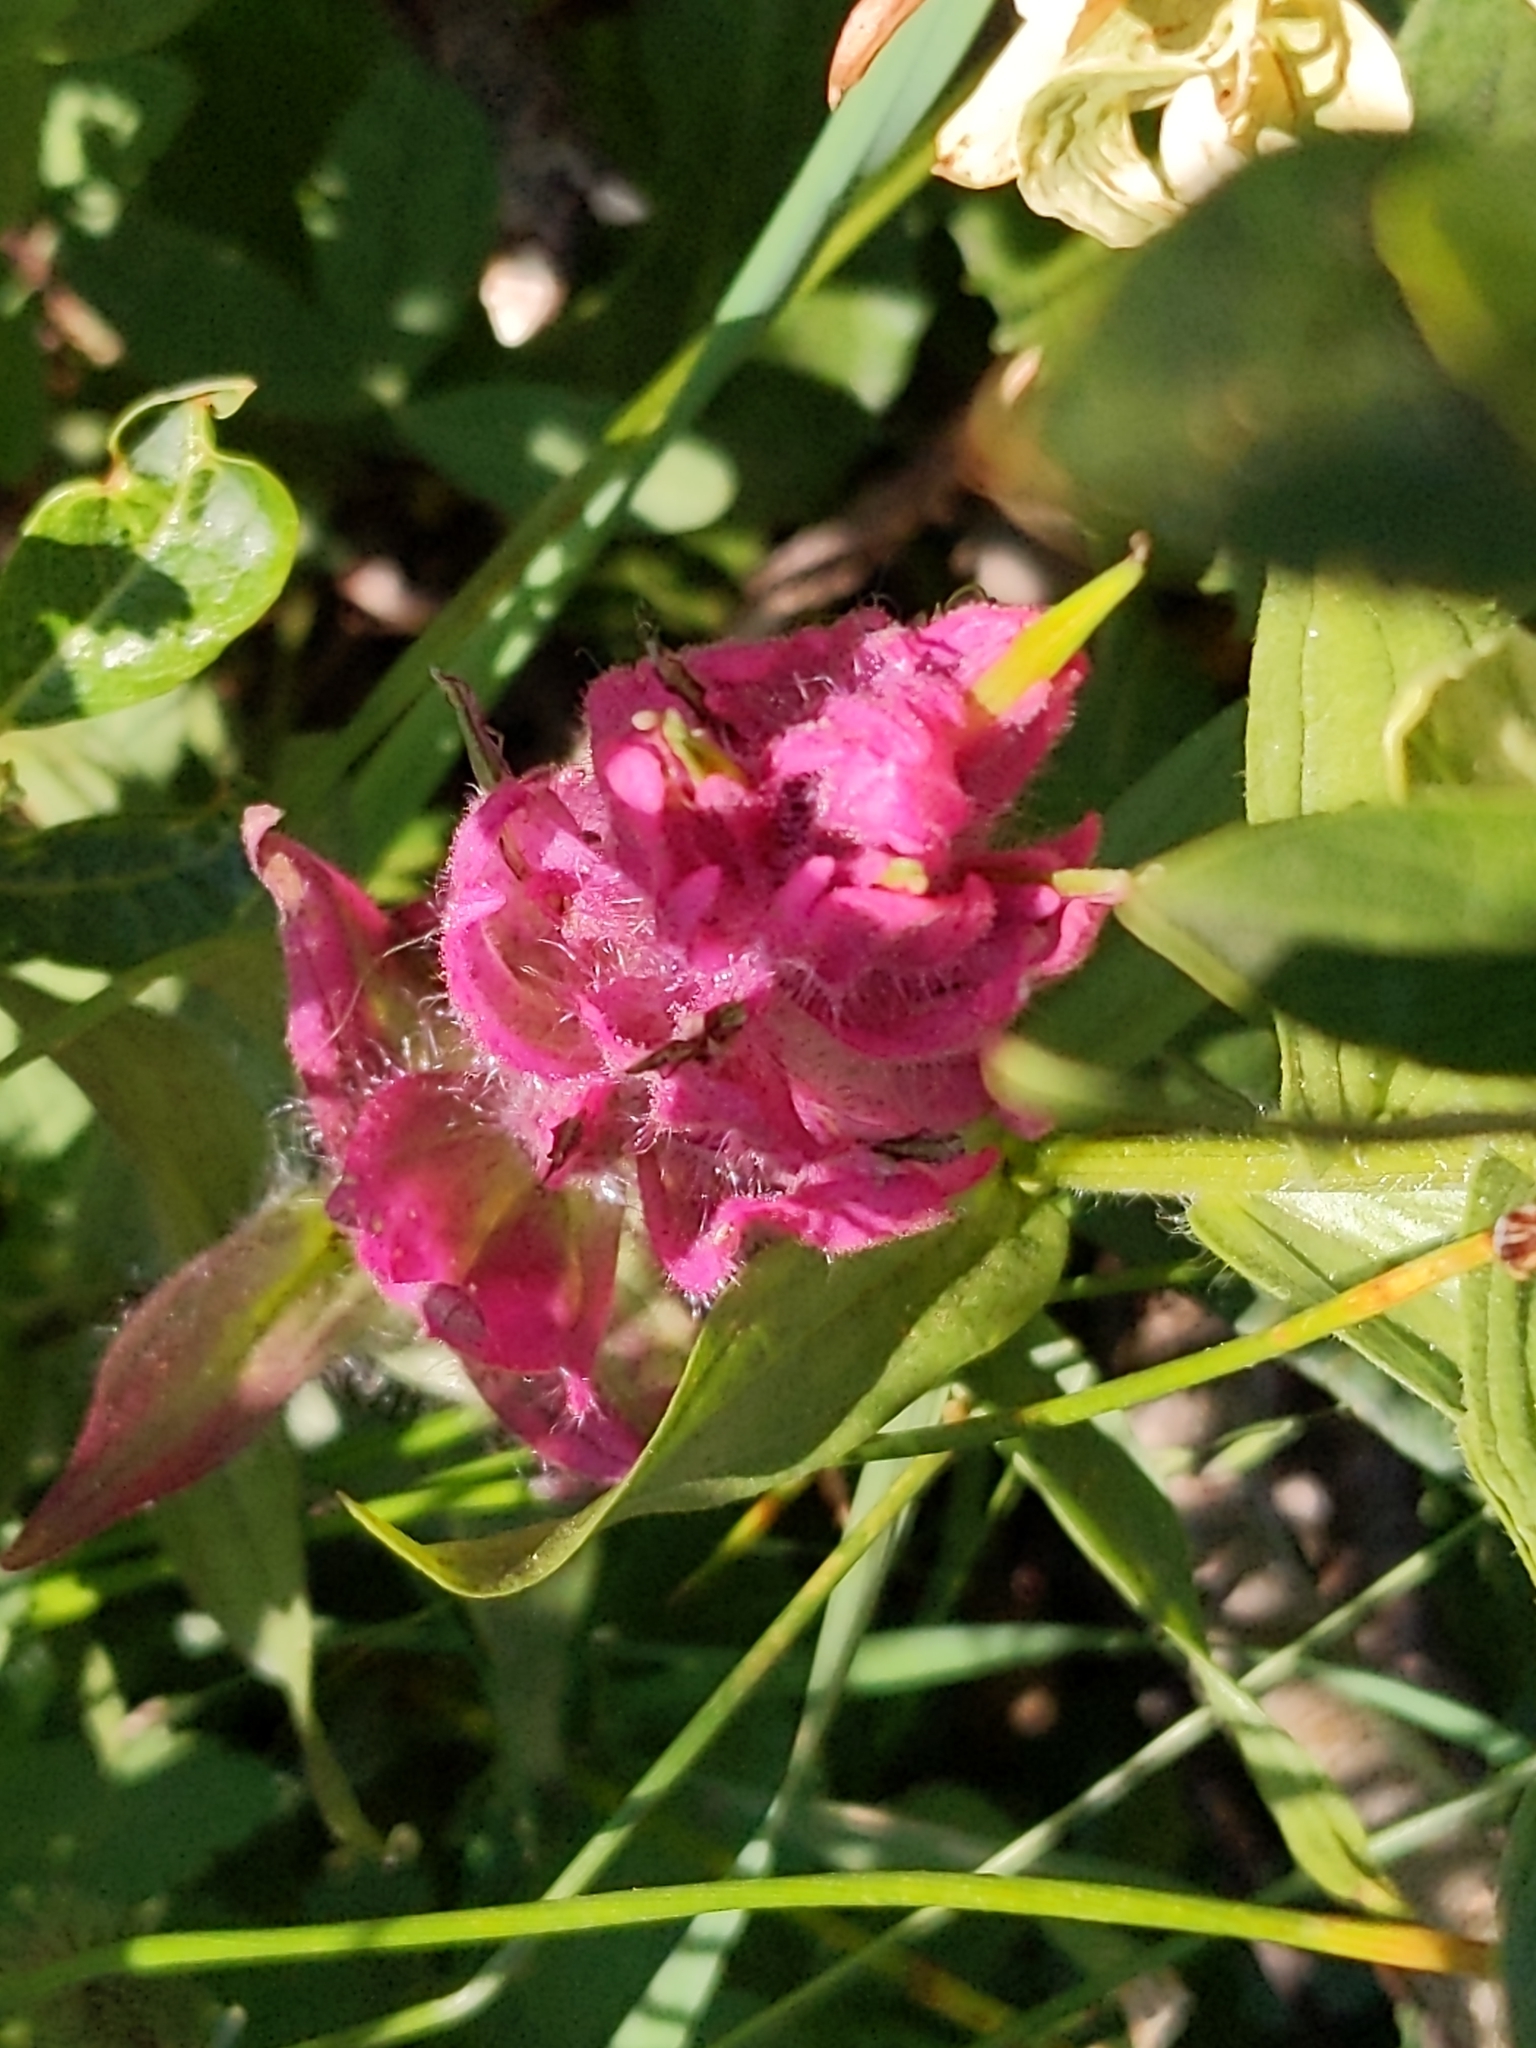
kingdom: Plantae
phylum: Tracheophyta
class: Magnoliopsida
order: Lamiales
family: Orobanchaceae
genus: Castilleja
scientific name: Castilleja rhexifolia
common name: Rocky mountain paintbrush
